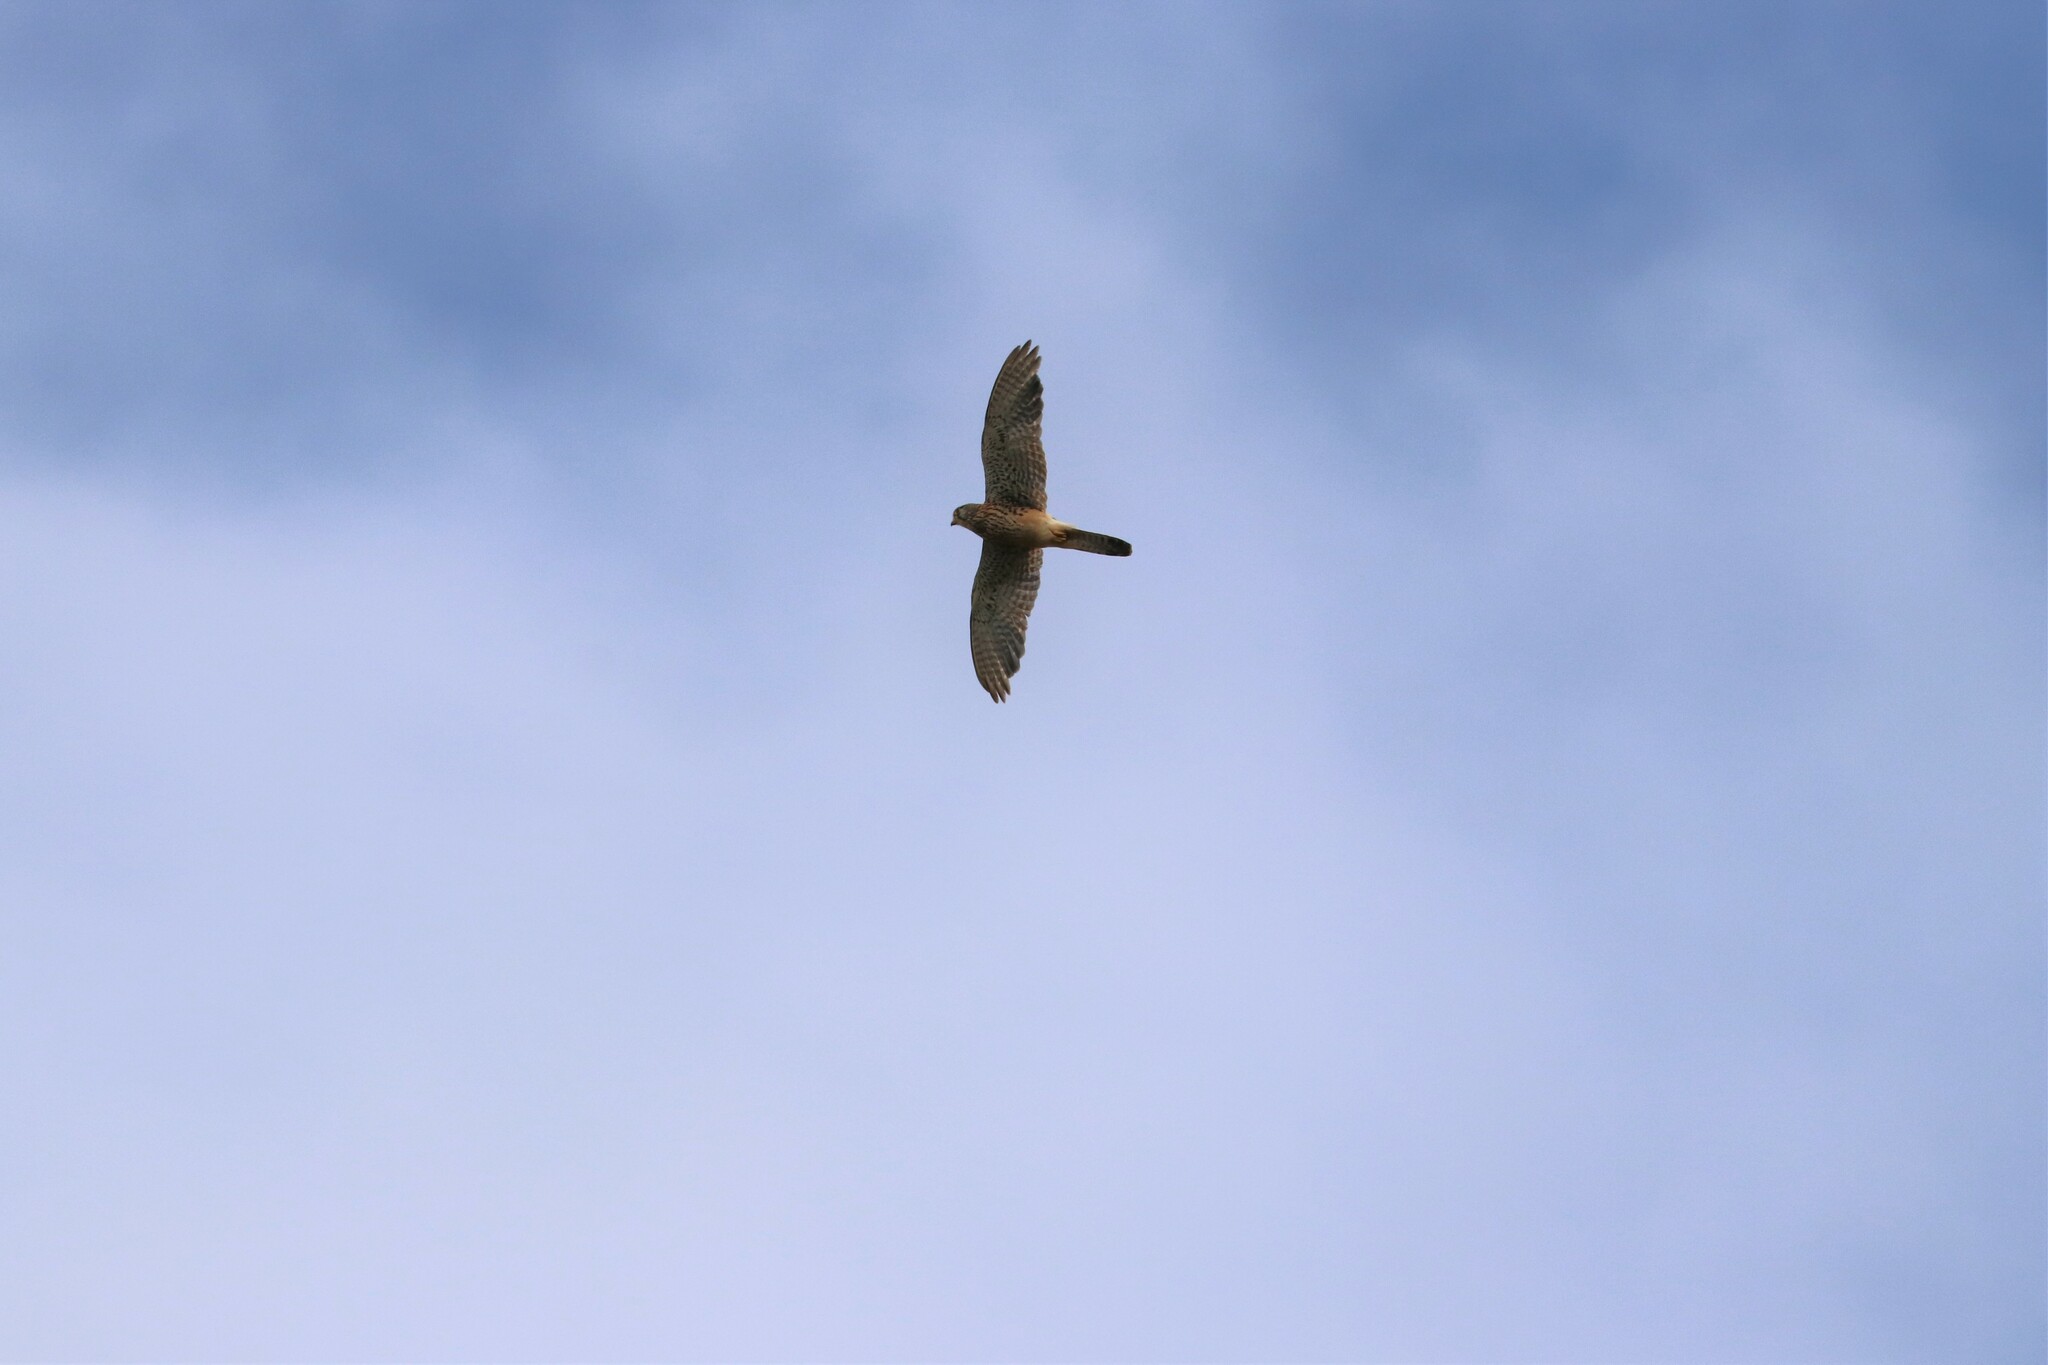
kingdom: Animalia
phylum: Chordata
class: Aves
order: Falconiformes
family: Falconidae
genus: Falco
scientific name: Falco tinnunculus
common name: Common kestrel
